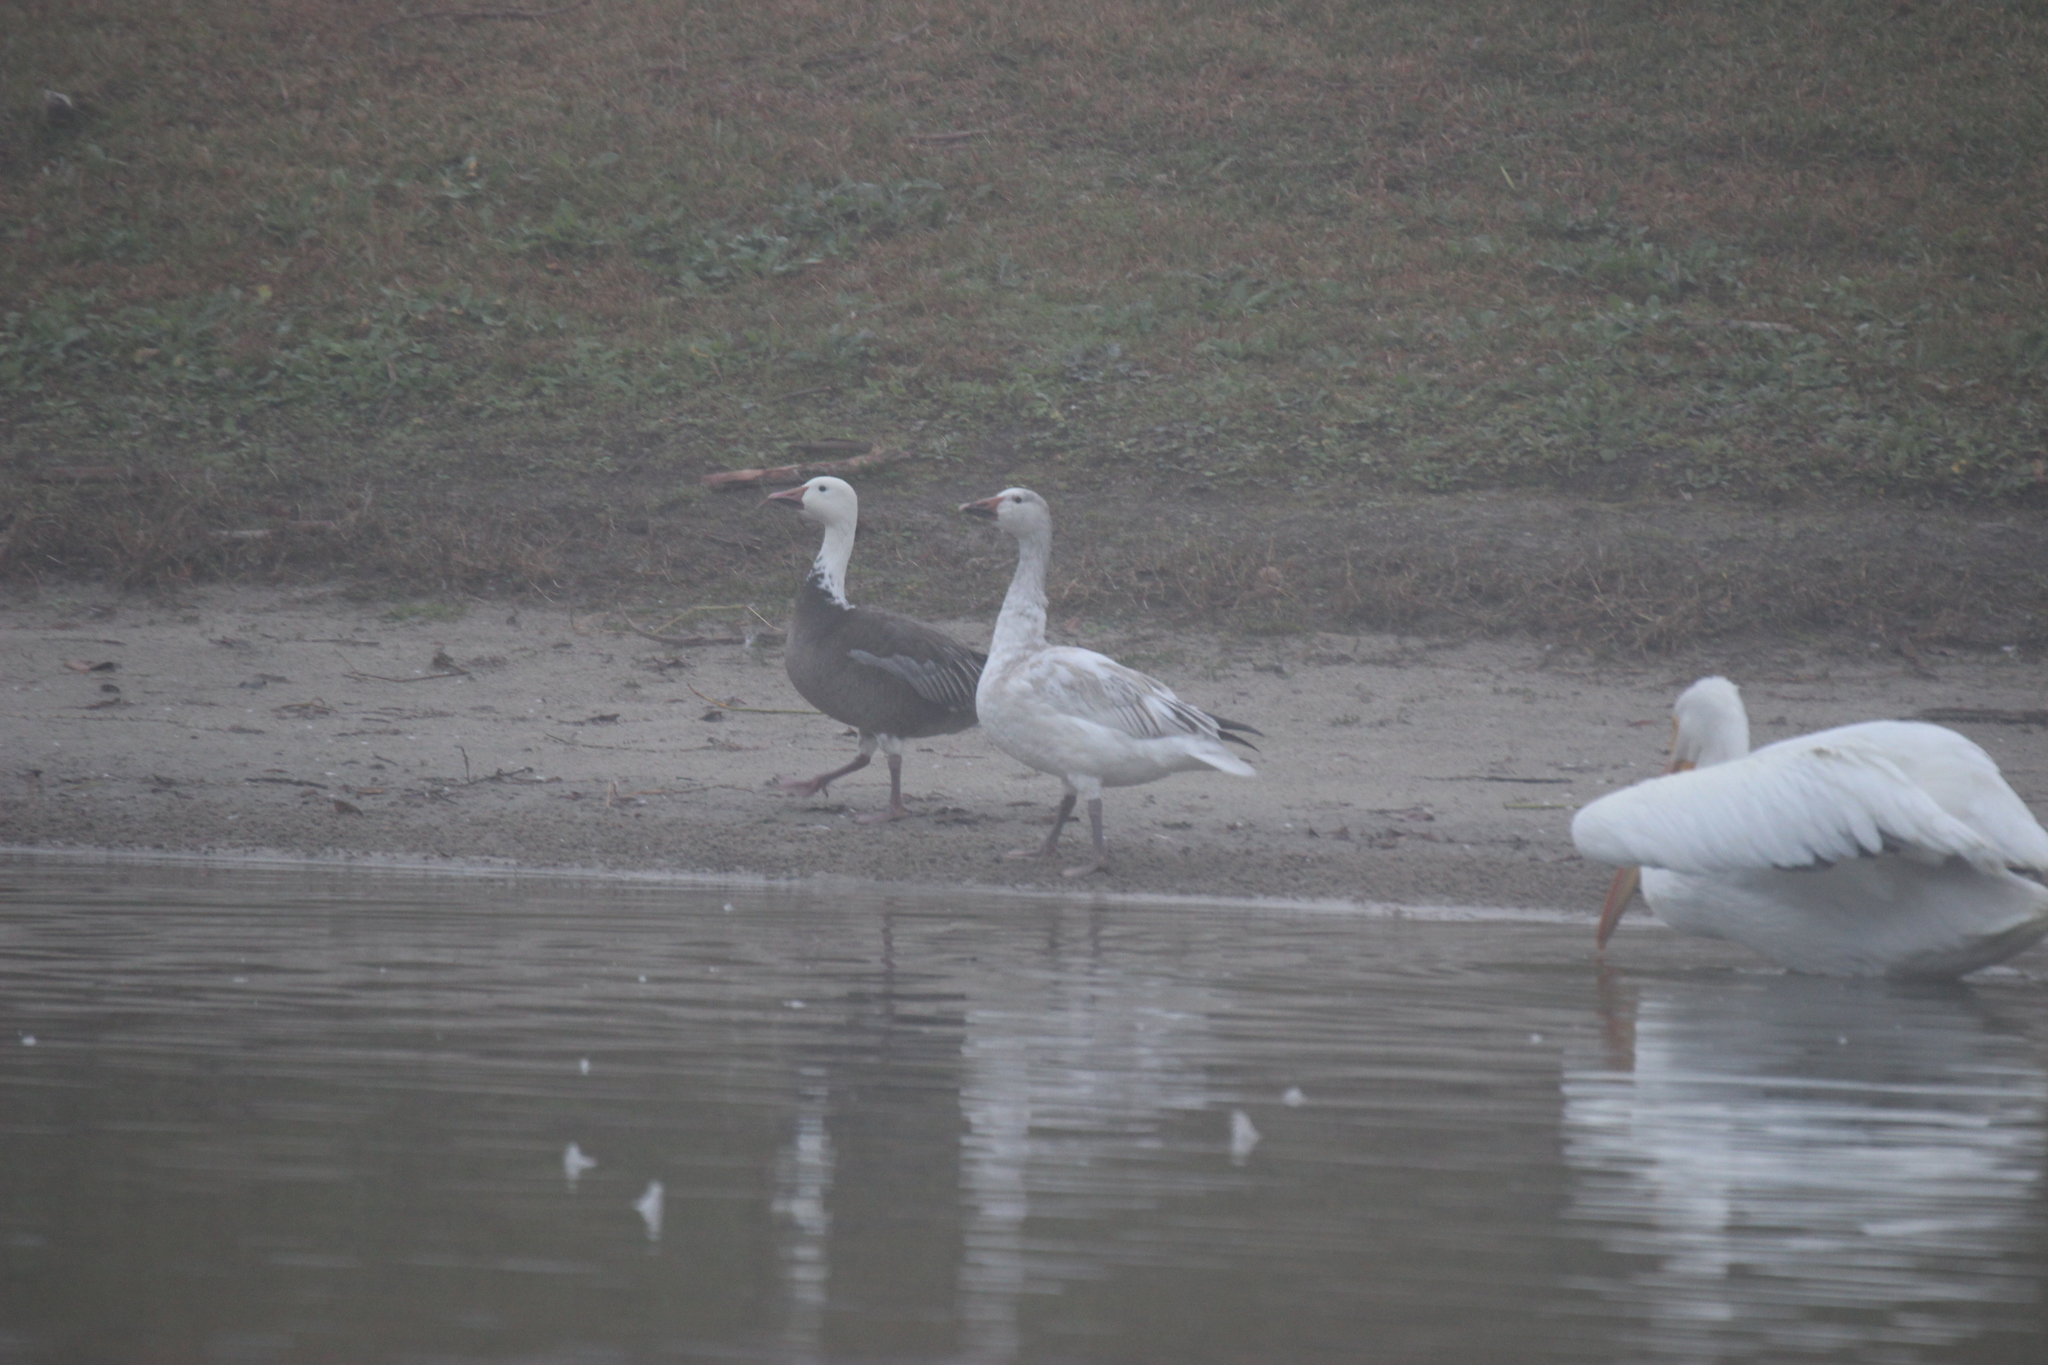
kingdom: Animalia
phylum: Chordata
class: Aves
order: Anseriformes
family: Anatidae
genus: Anser
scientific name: Anser caerulescens
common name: Snow goose
